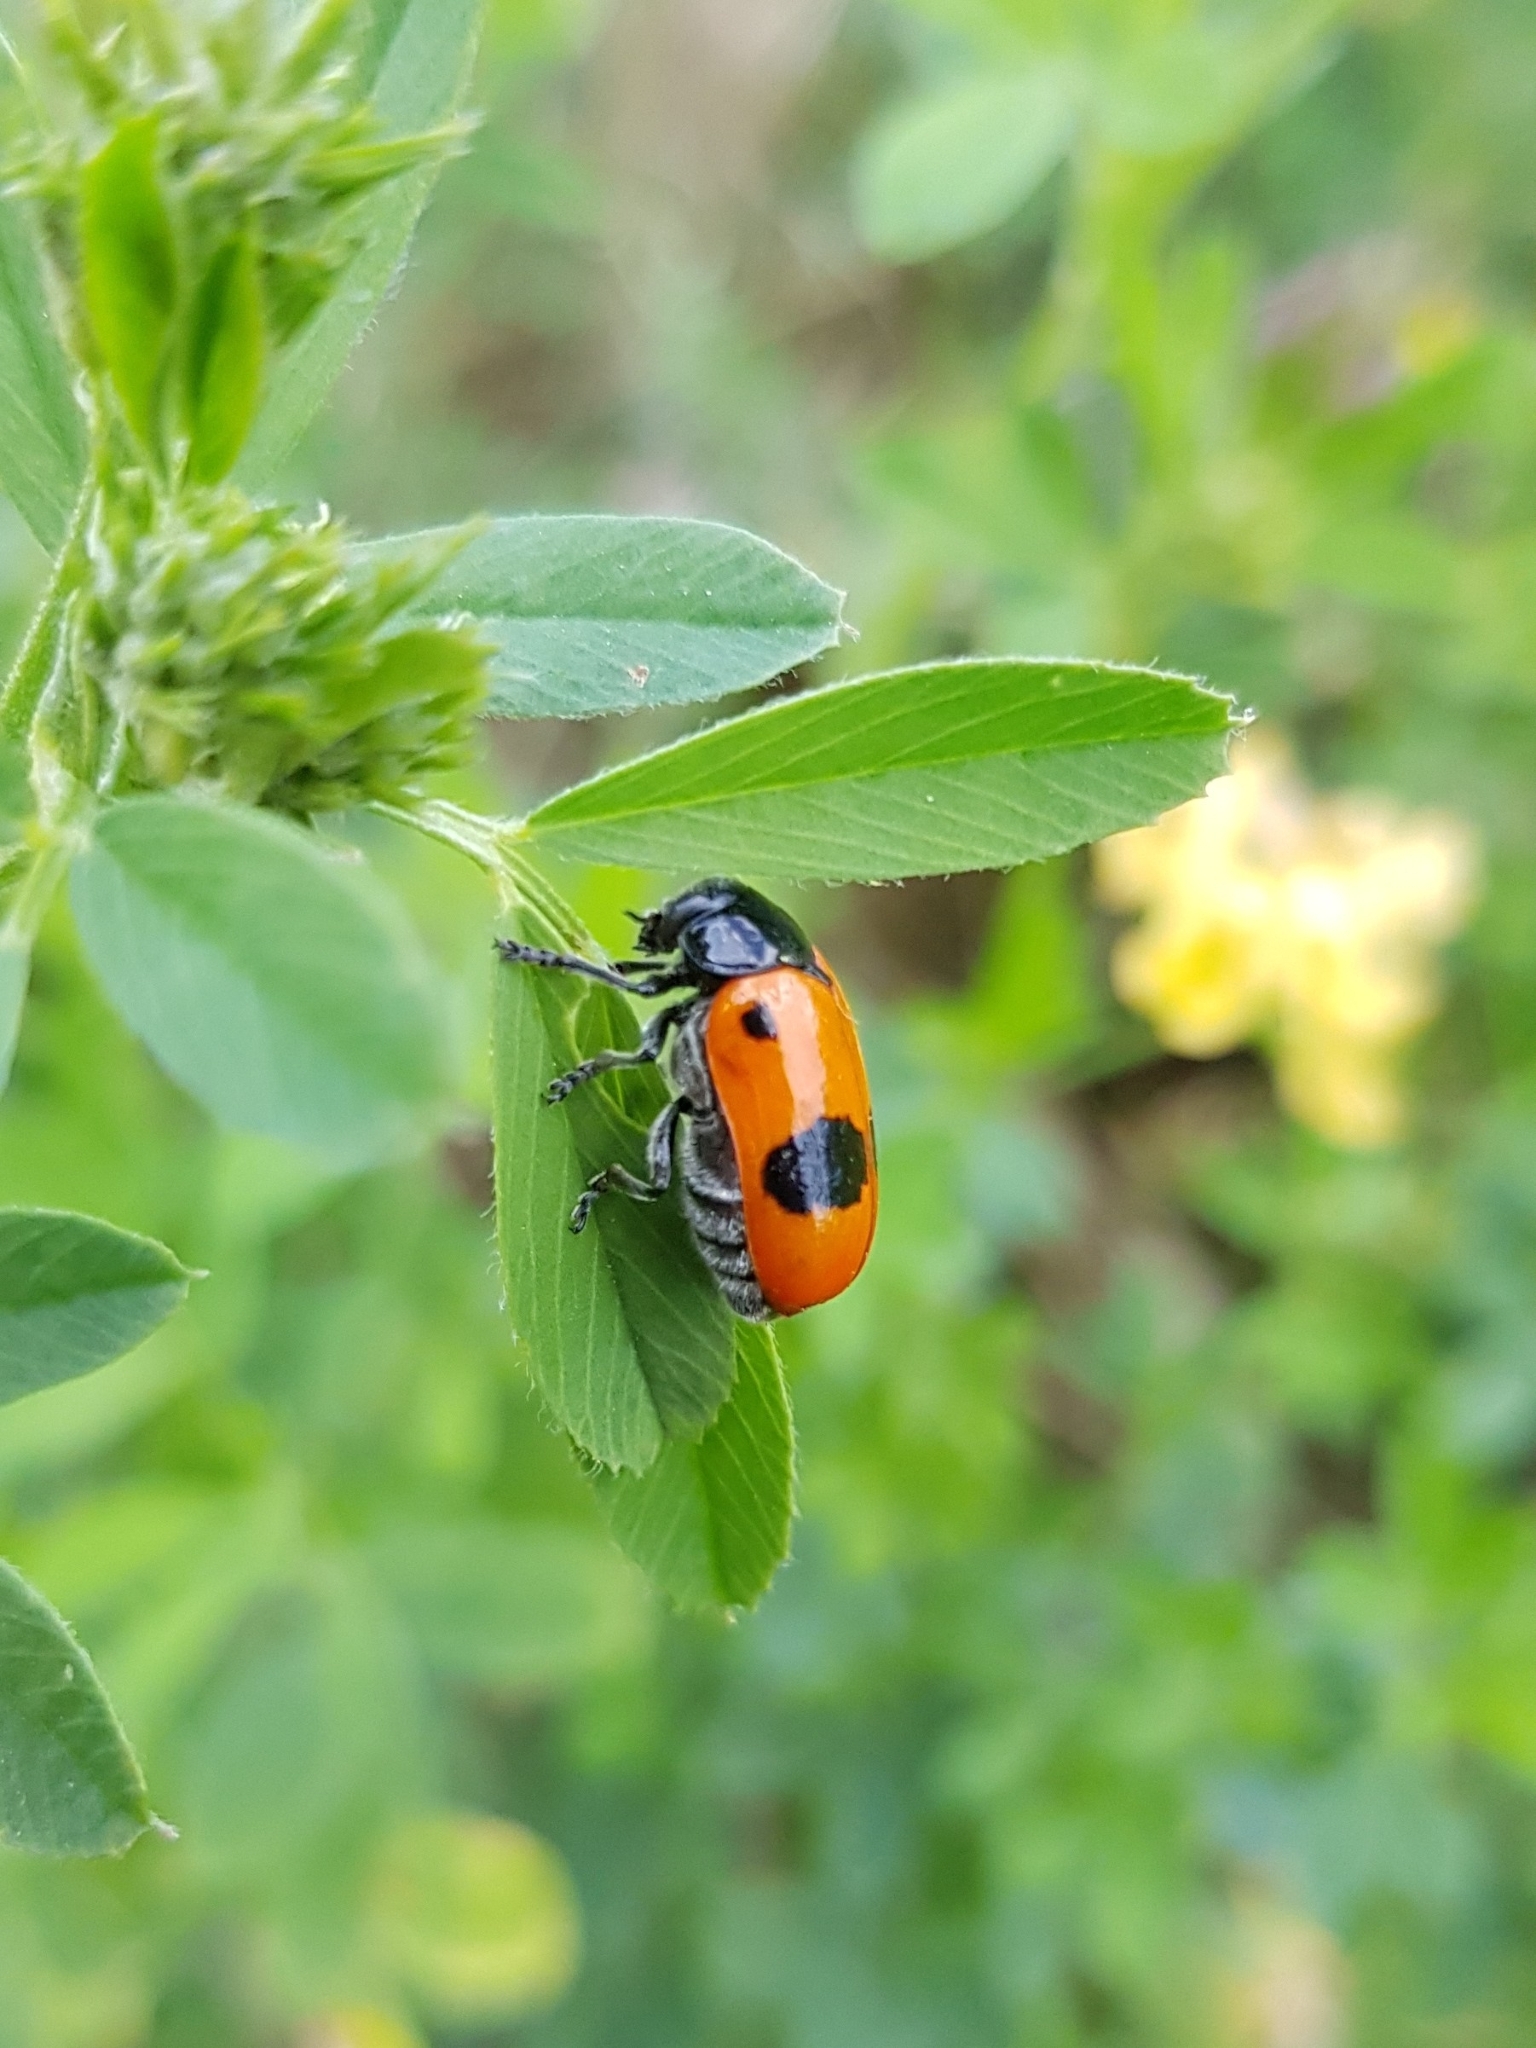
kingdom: Animalia
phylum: Arthropoda
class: Insecta
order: Coleoptera
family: Chrysomelidae
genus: Clytra
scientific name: Clytra laeviuscula
